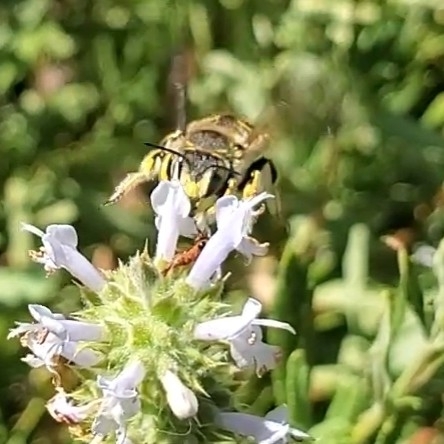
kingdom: Animalia
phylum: Arthropoda
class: Insecta
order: Hymenoptera
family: Megachilidae
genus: Anthidium
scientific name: Anthidium manicatum
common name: Wool carder bee
